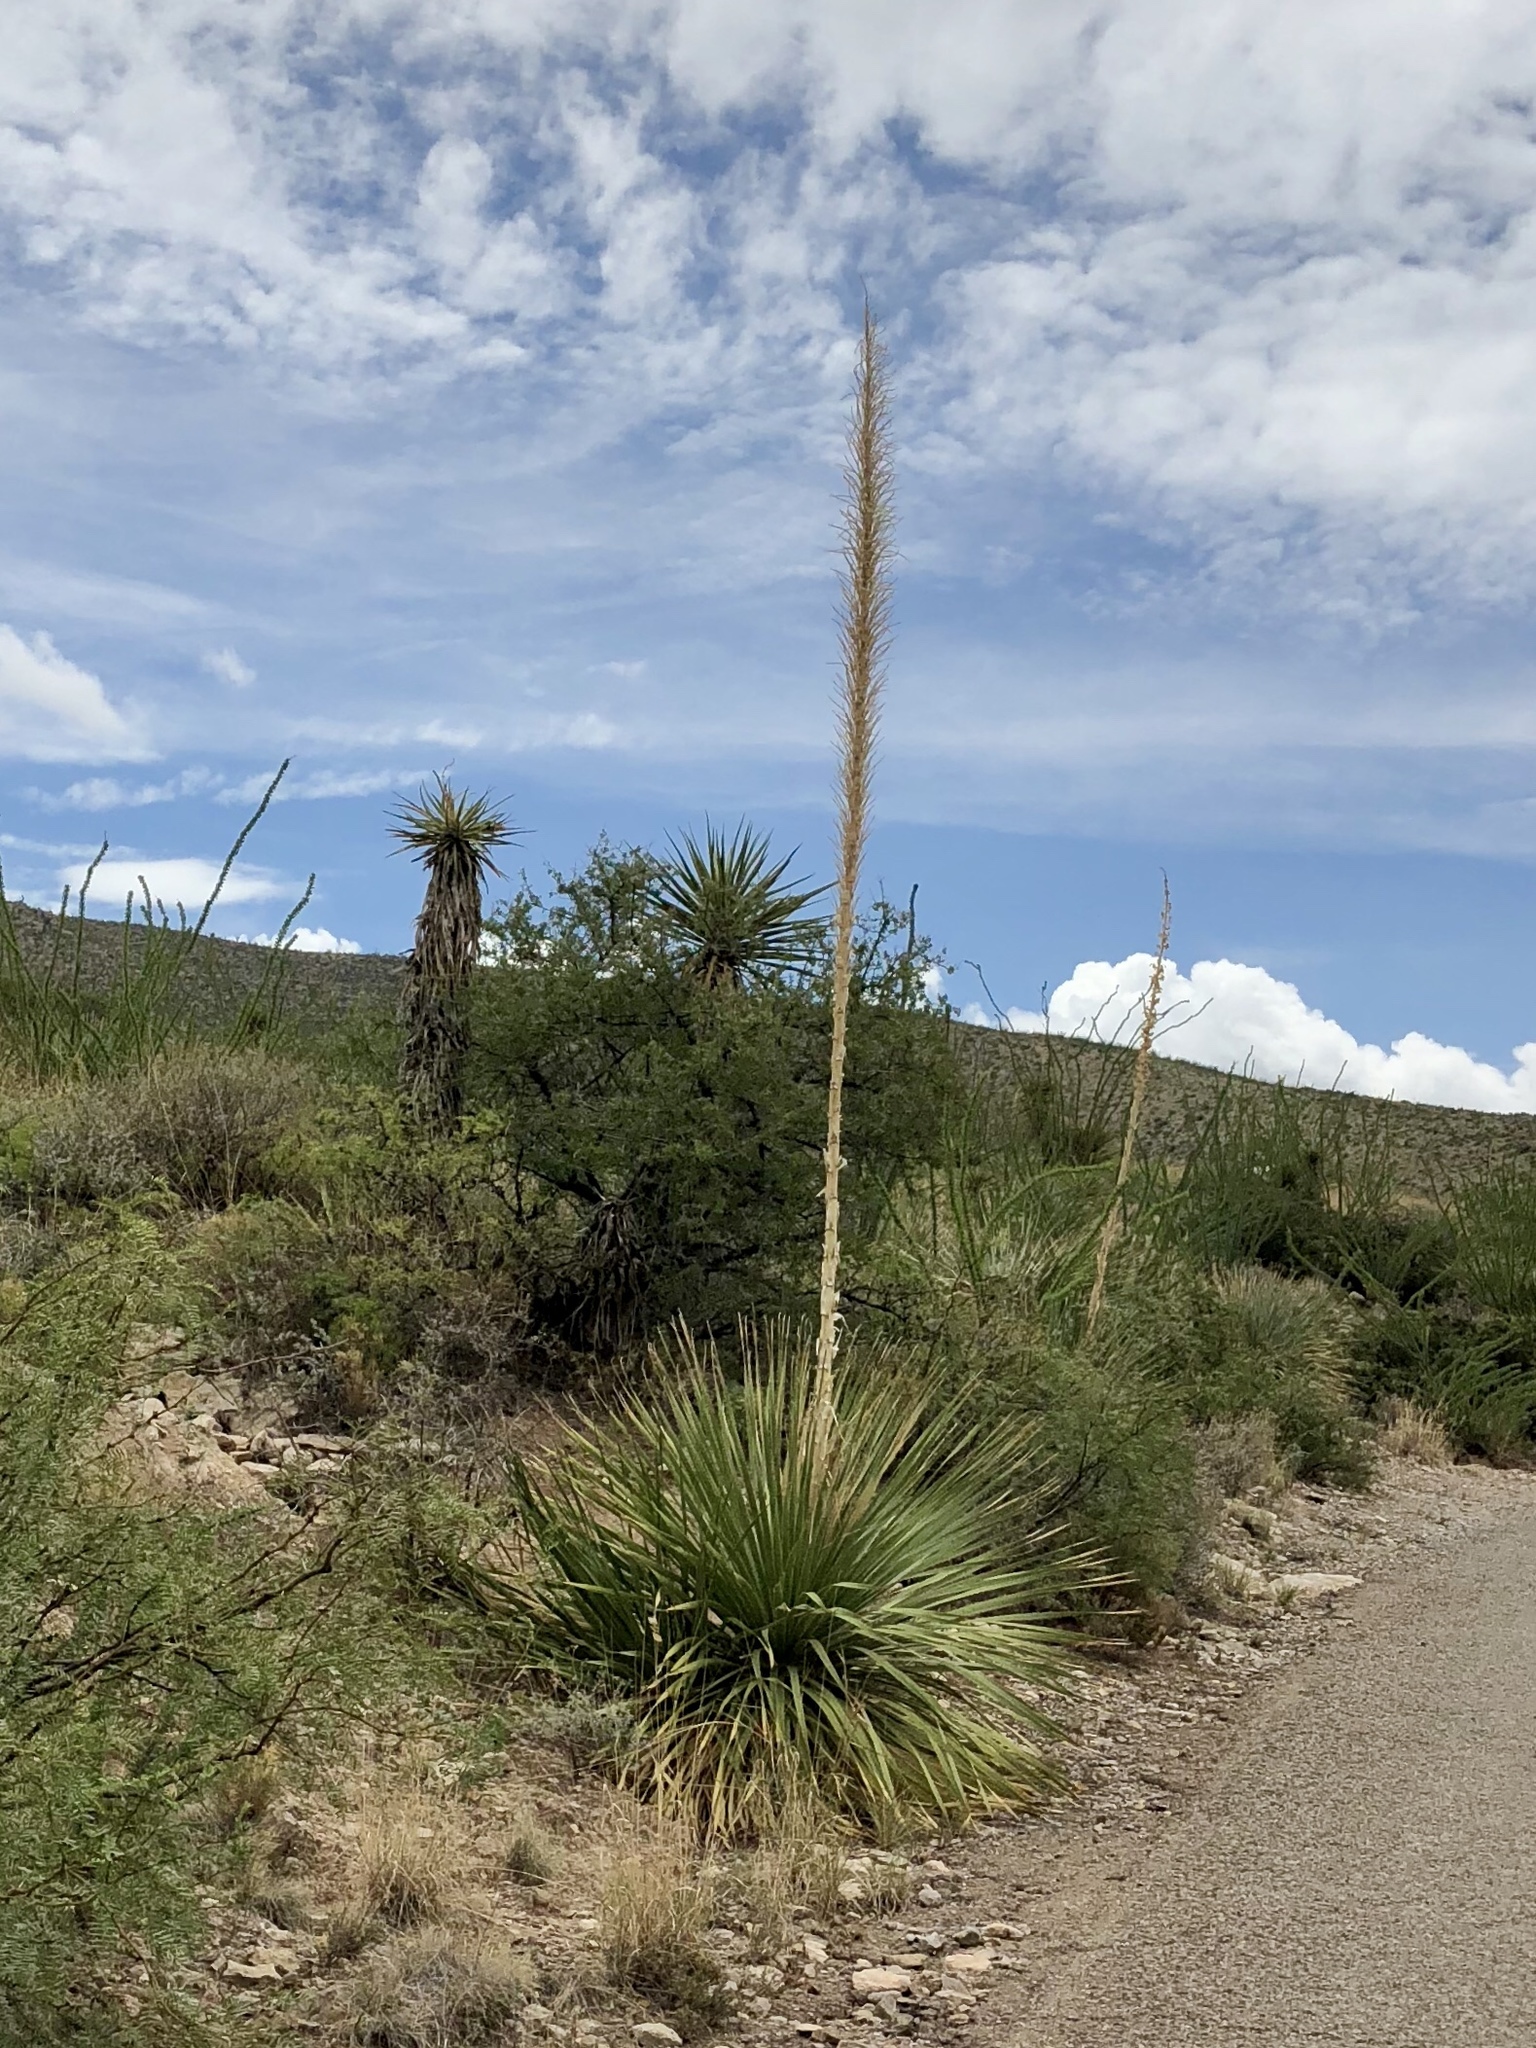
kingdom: Plantae
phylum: Tracheophyta
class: Liliopsida
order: Asparagales
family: Asparagaceae
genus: Dasylirion
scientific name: Dasylirion wheeleri
